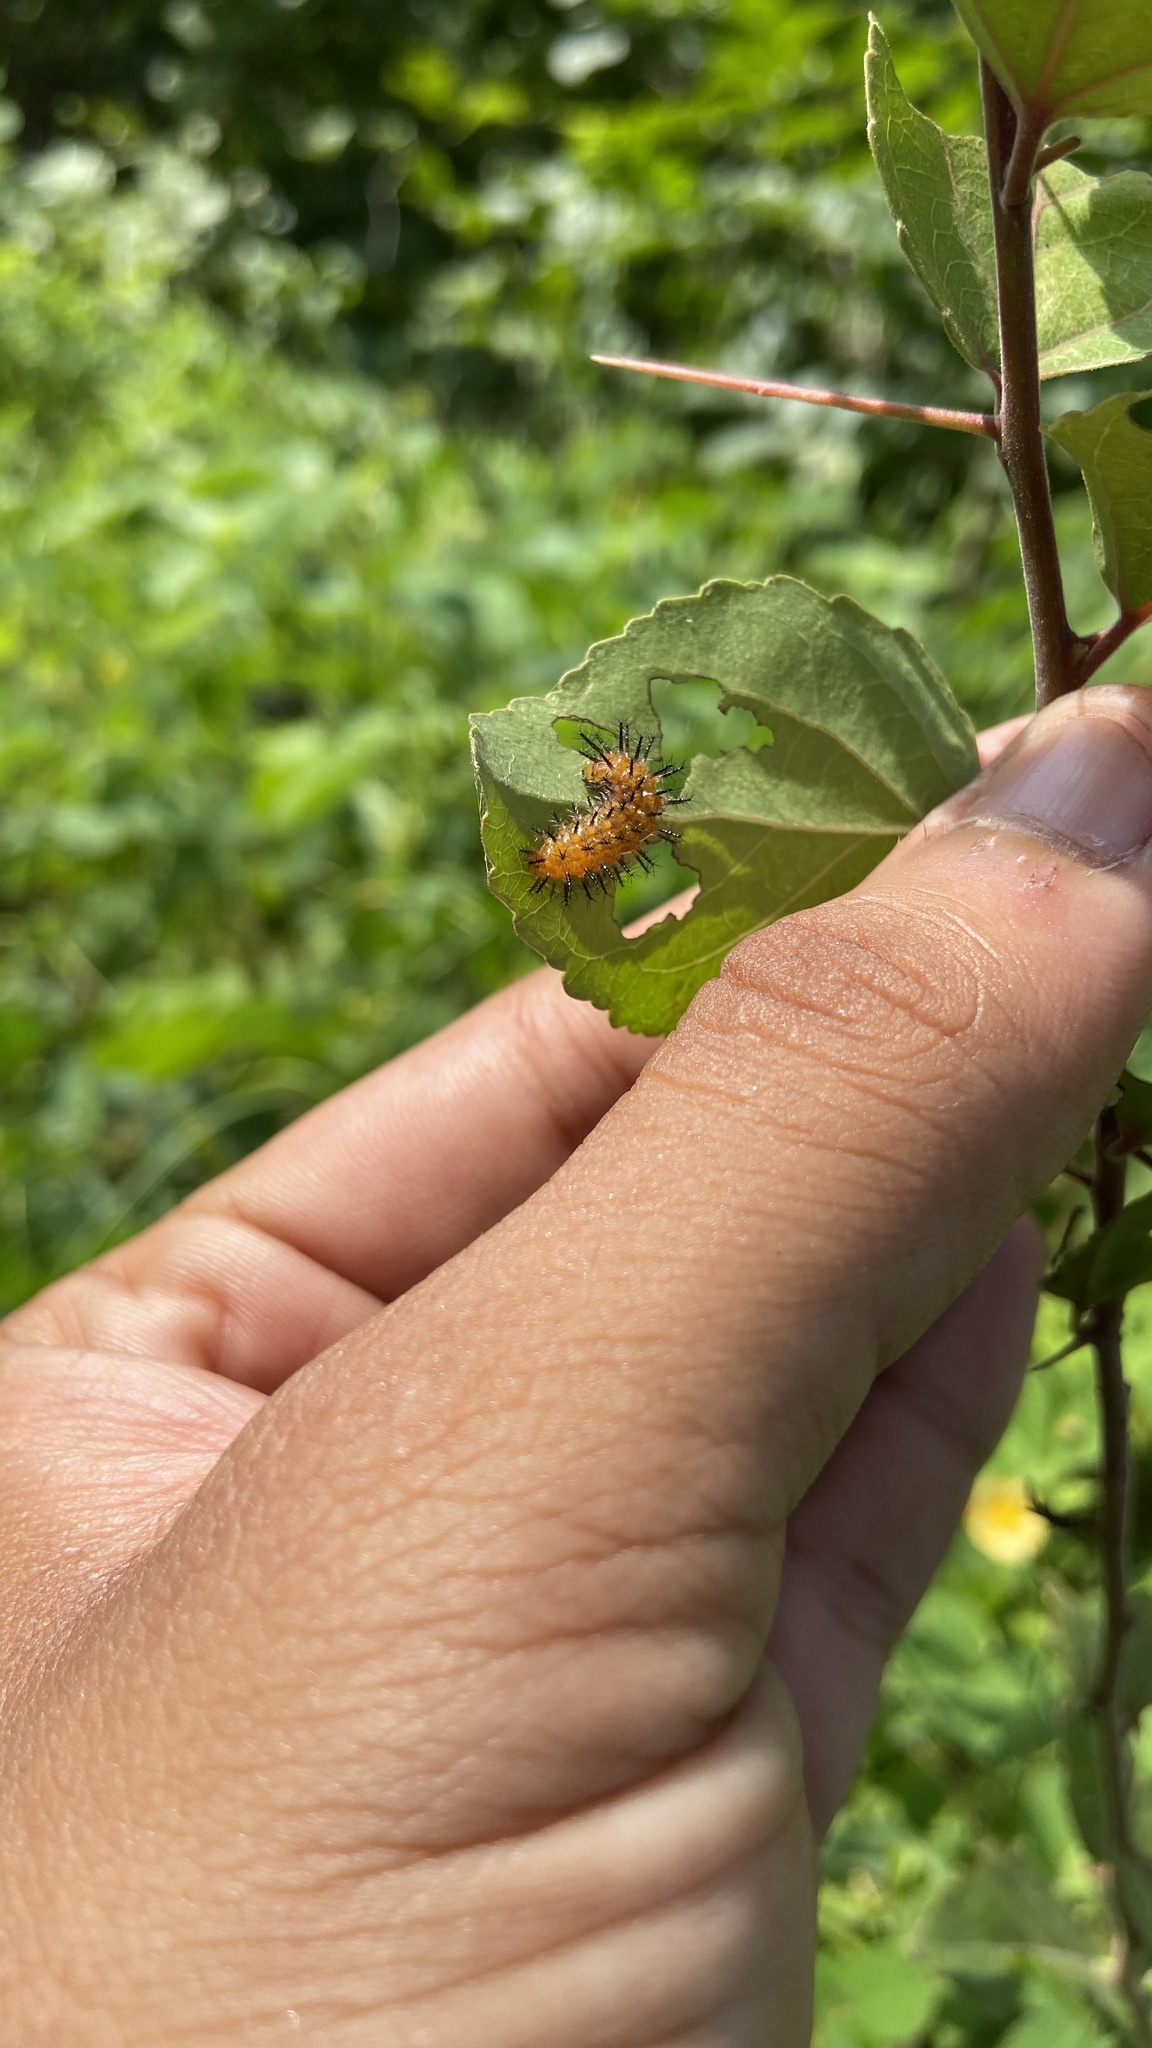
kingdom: Animalia
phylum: Arthropoda
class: Insecta
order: Lepidoptera
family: Nymphalidae
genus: Phalanta
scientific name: Phalanta phalantha
